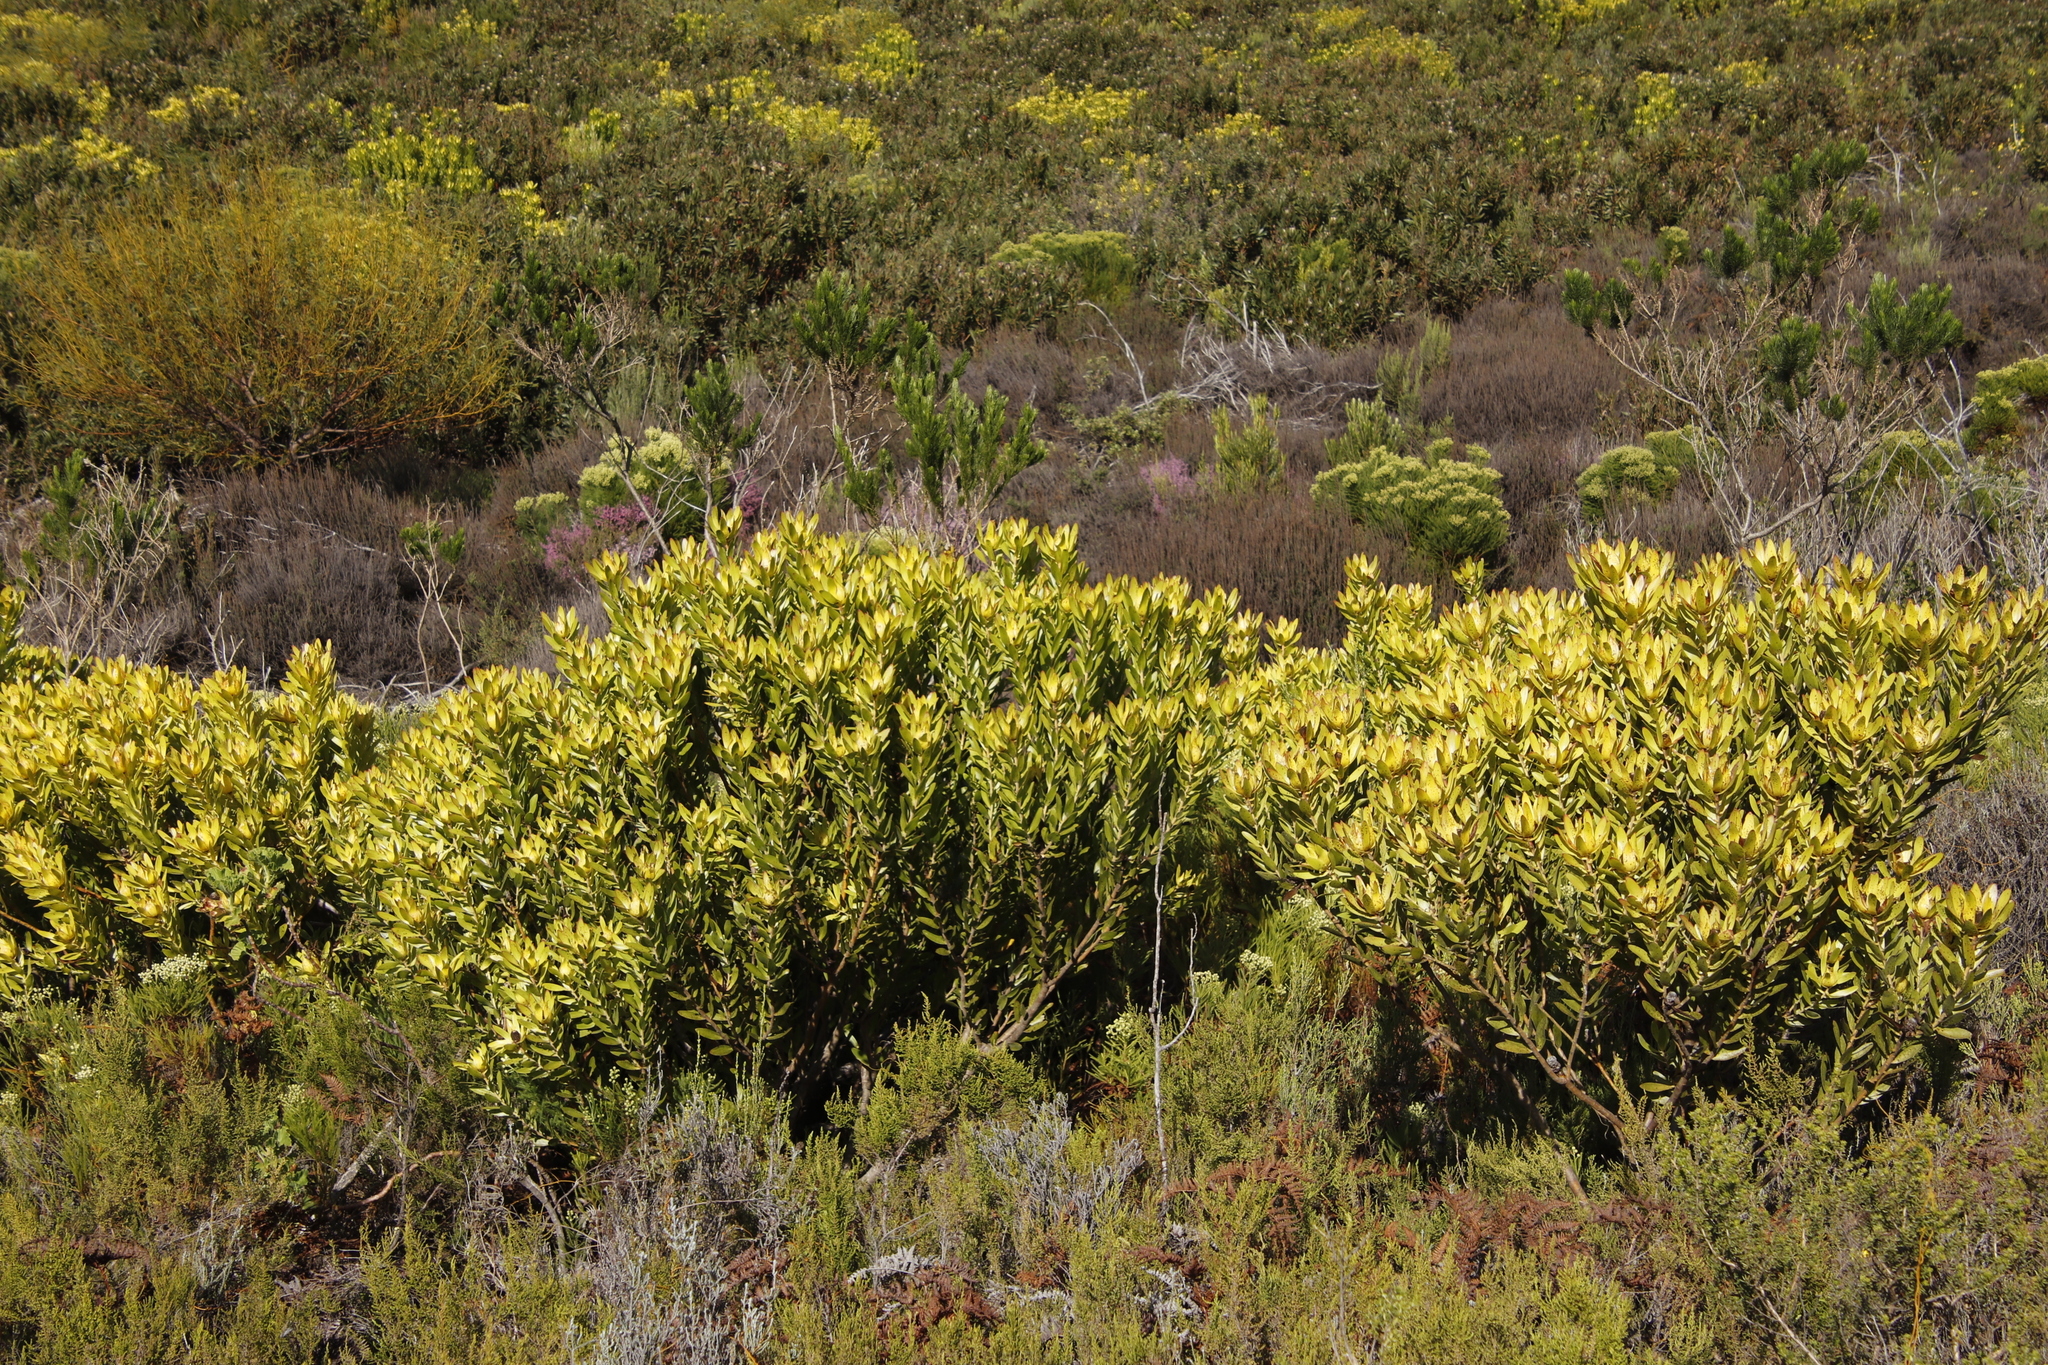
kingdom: Plantae
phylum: Tracheophyta
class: Magnoliopsida
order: Proteales
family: Proteaceae
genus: Leucadendron
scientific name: Leucadendron laureolum
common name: Golden sunshinebush
